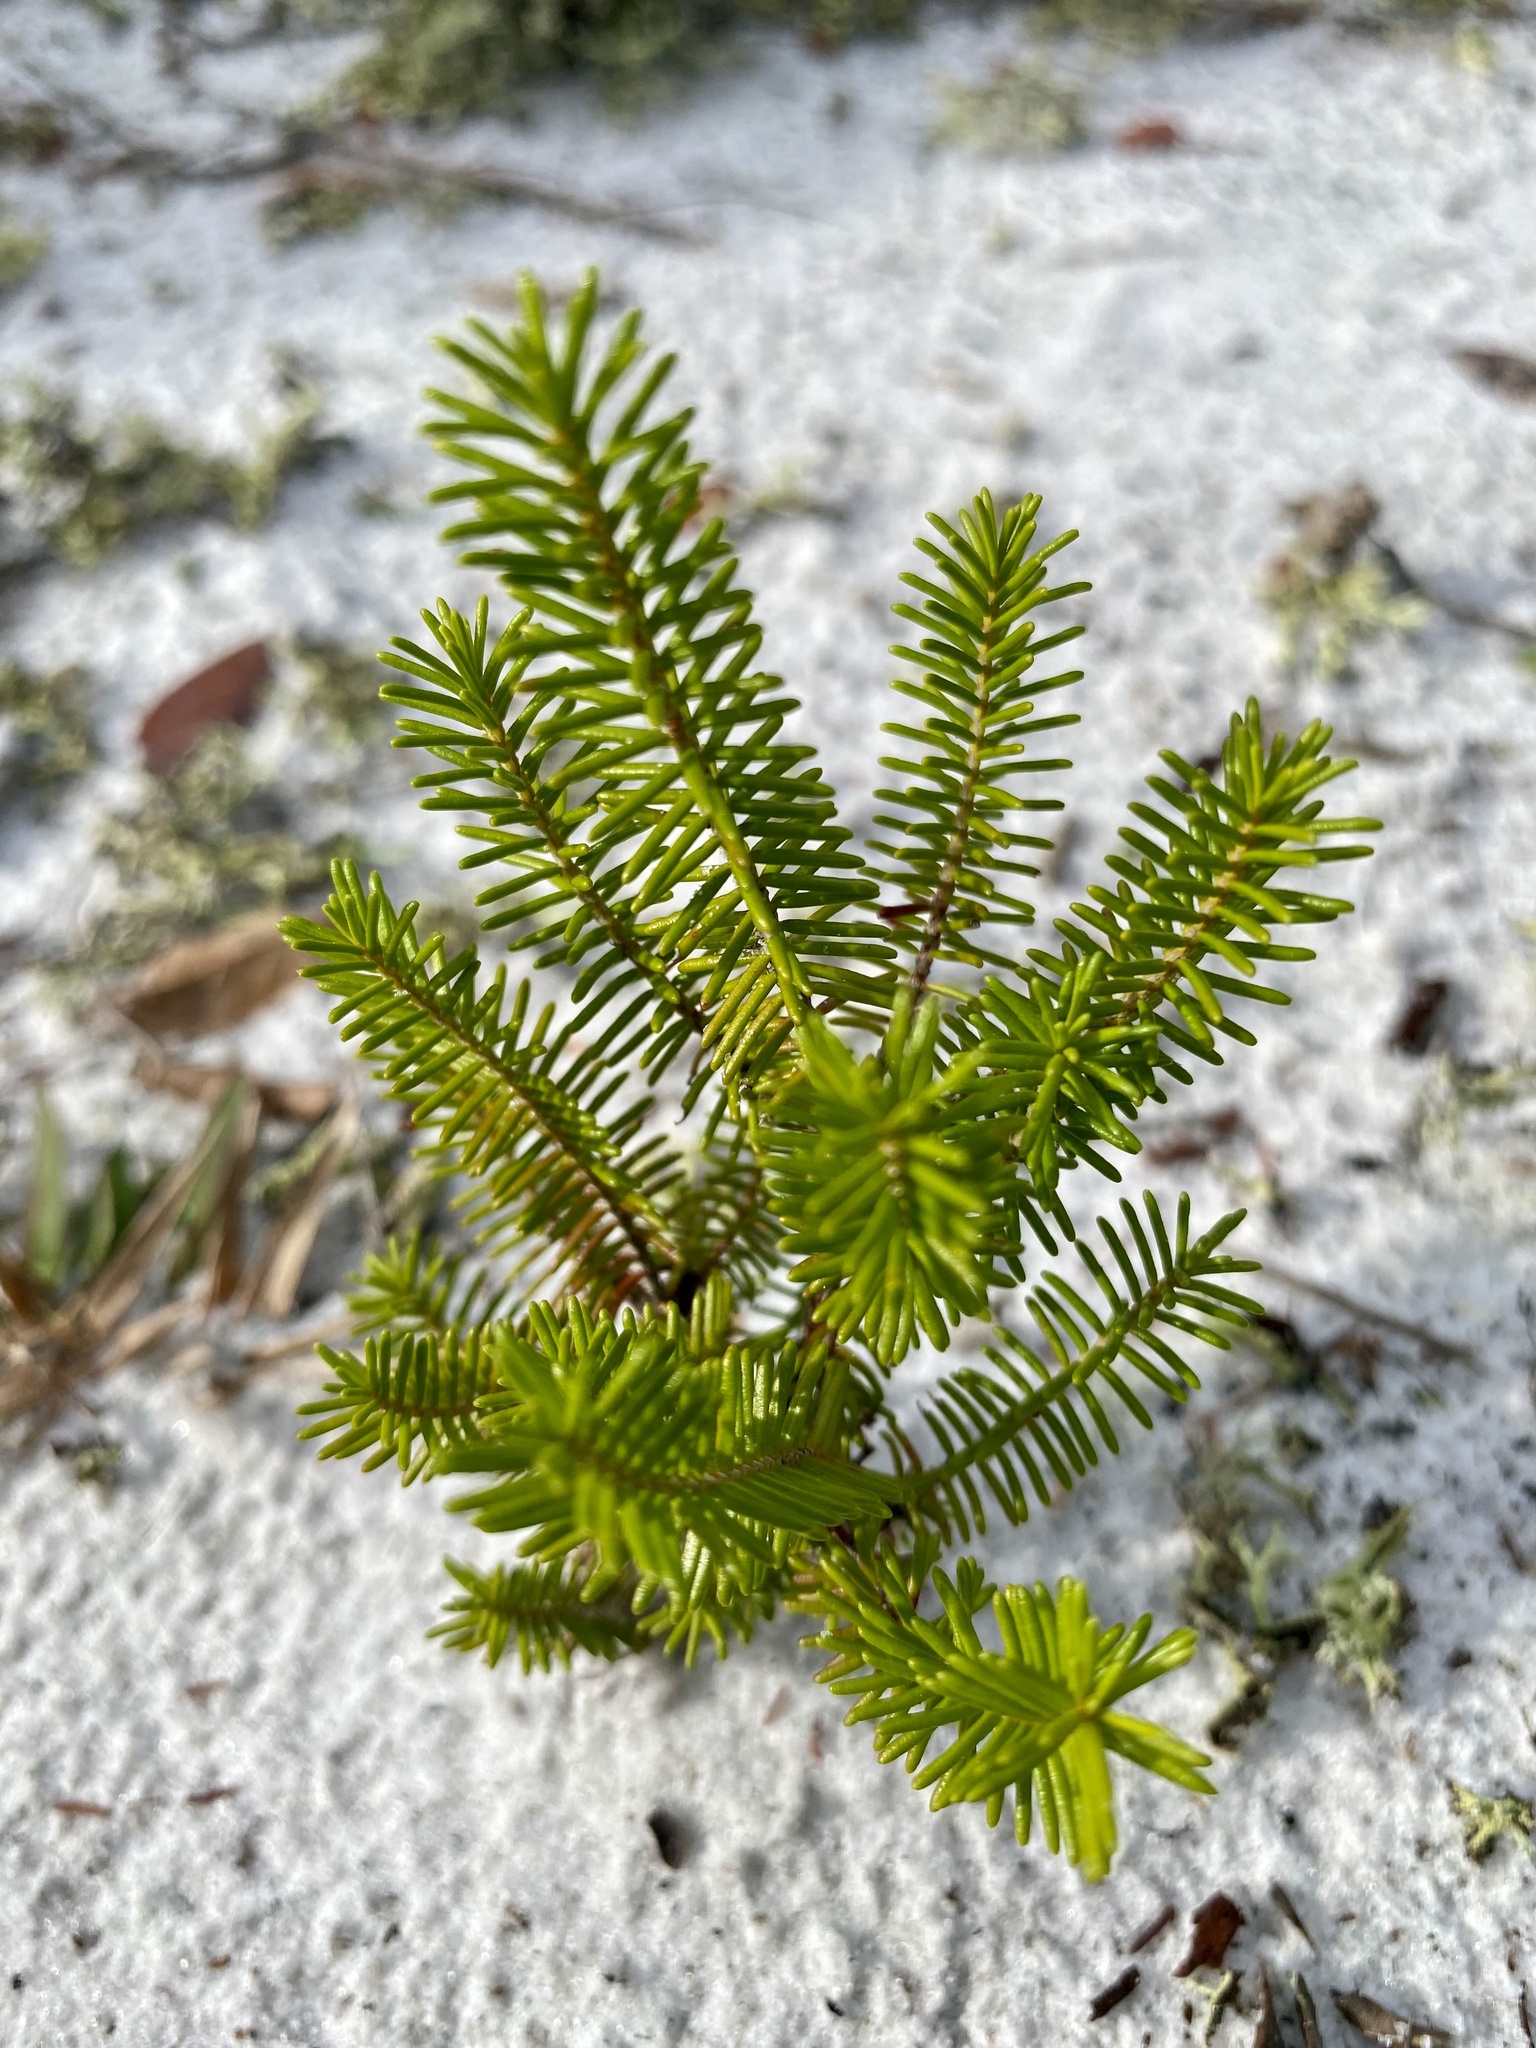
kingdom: Plantae
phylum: Tracheophyta
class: Magnoliopsida
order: Ericales
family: Ericaceae
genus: Ceratiola
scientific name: Ceratiola ericoides
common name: Sandhill-rosemary
